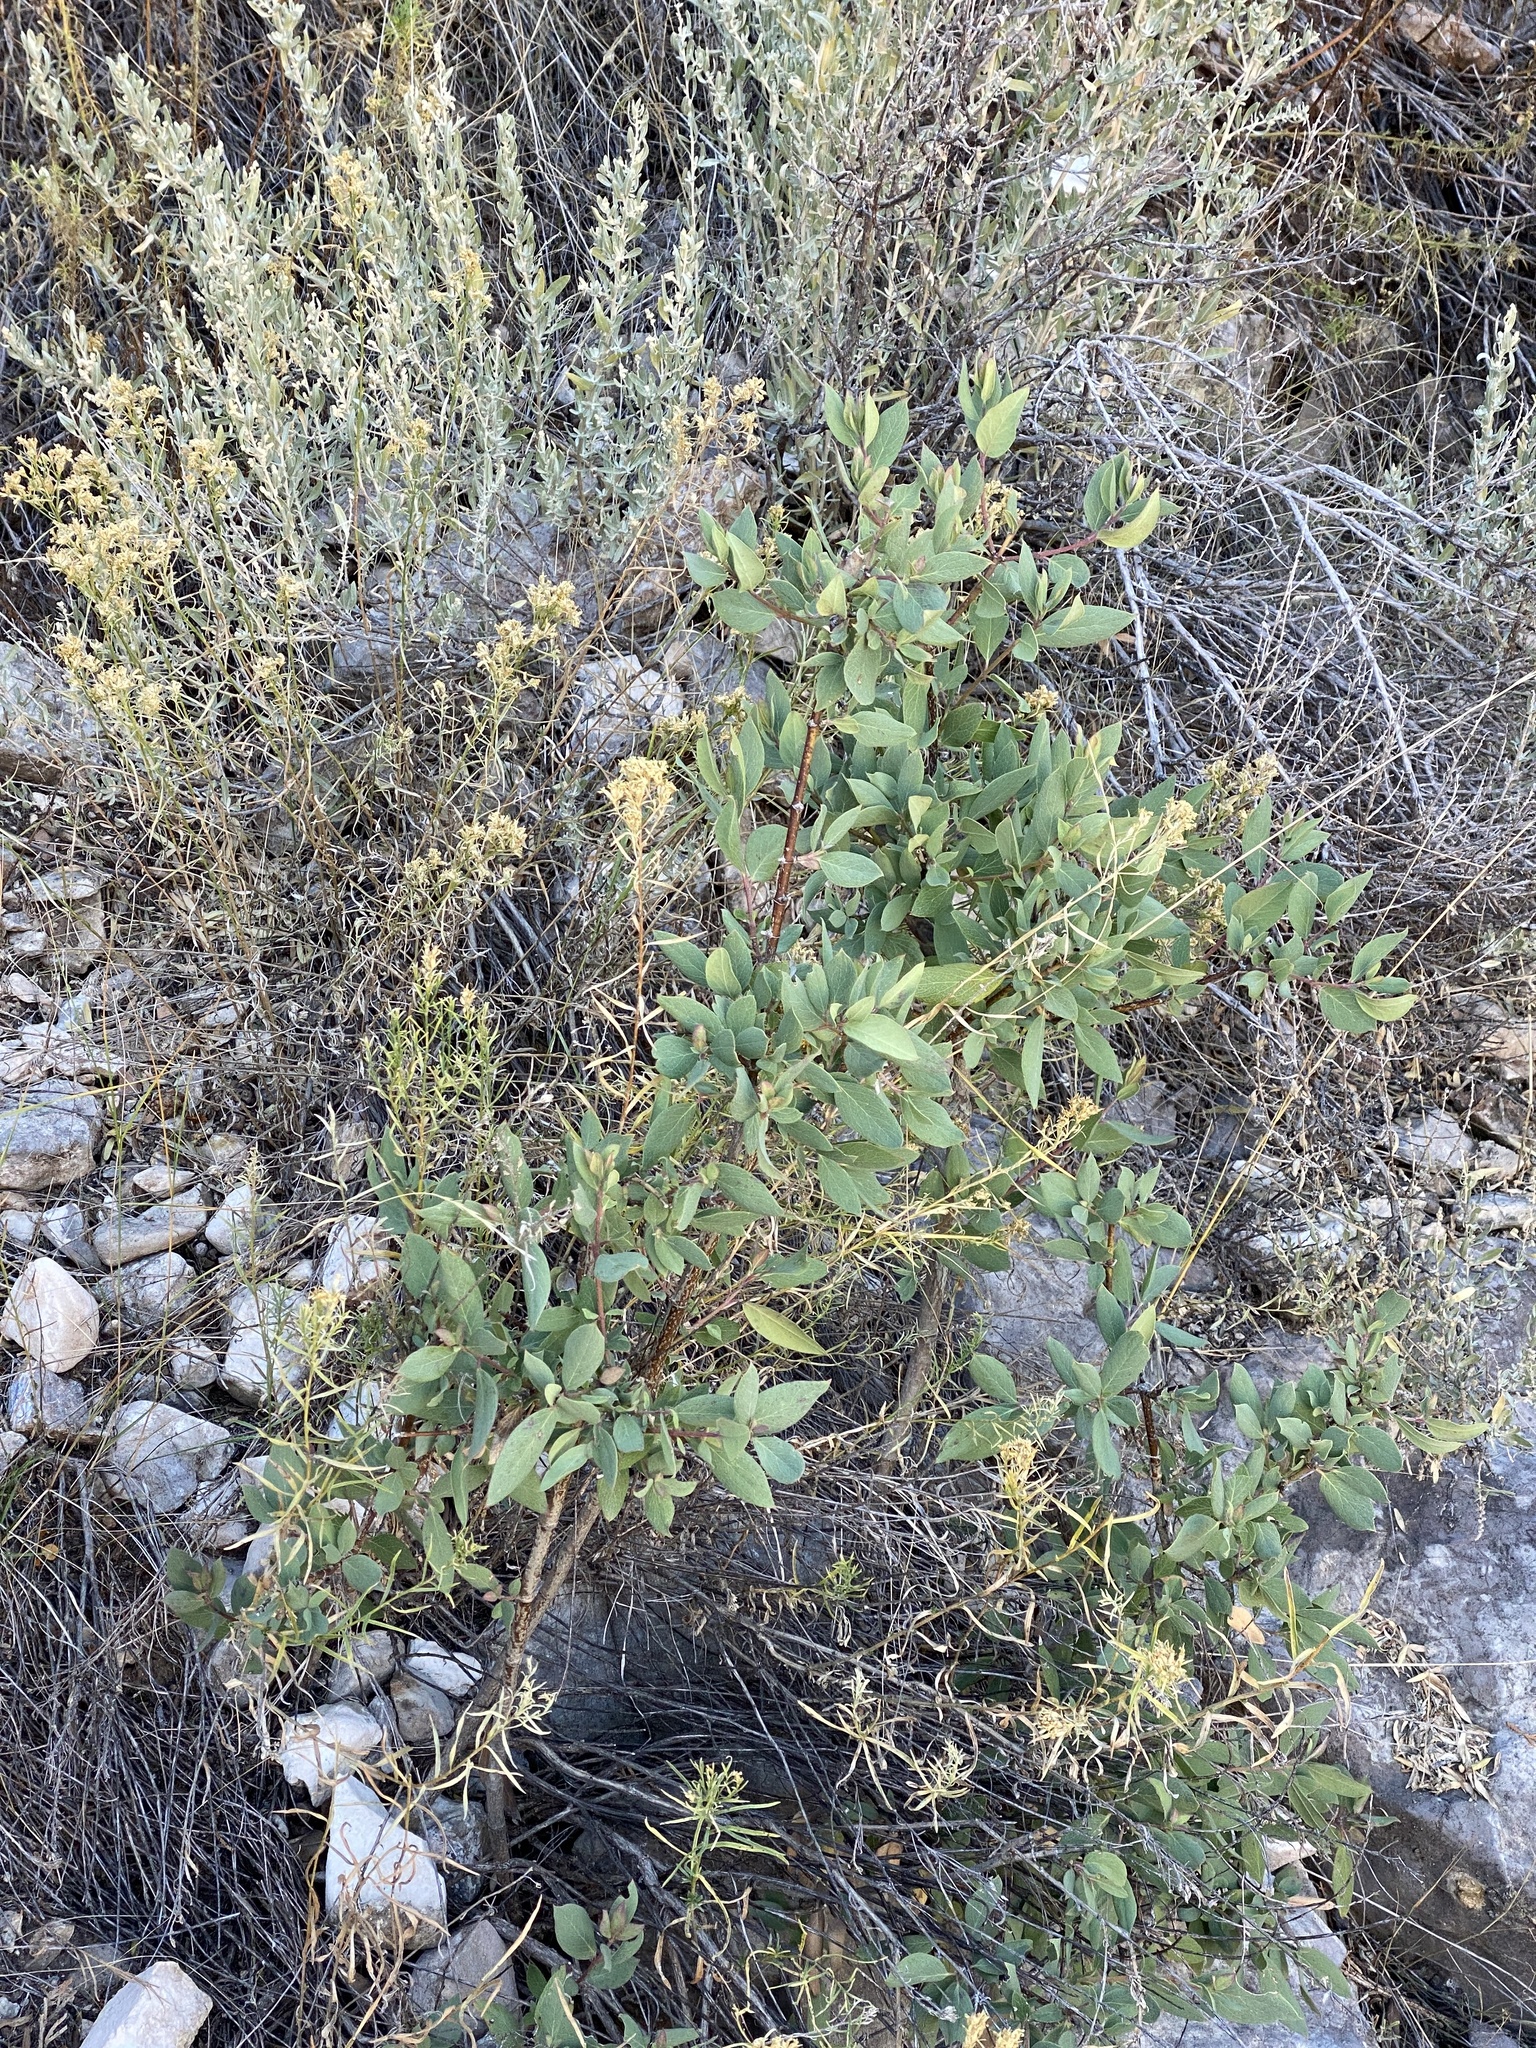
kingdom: Plantae
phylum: Tracheophyta
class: Magnoliopsida
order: Garryales
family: Garryaceae
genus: Garrya
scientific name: Garrya wrightii
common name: Wright's silktassel
